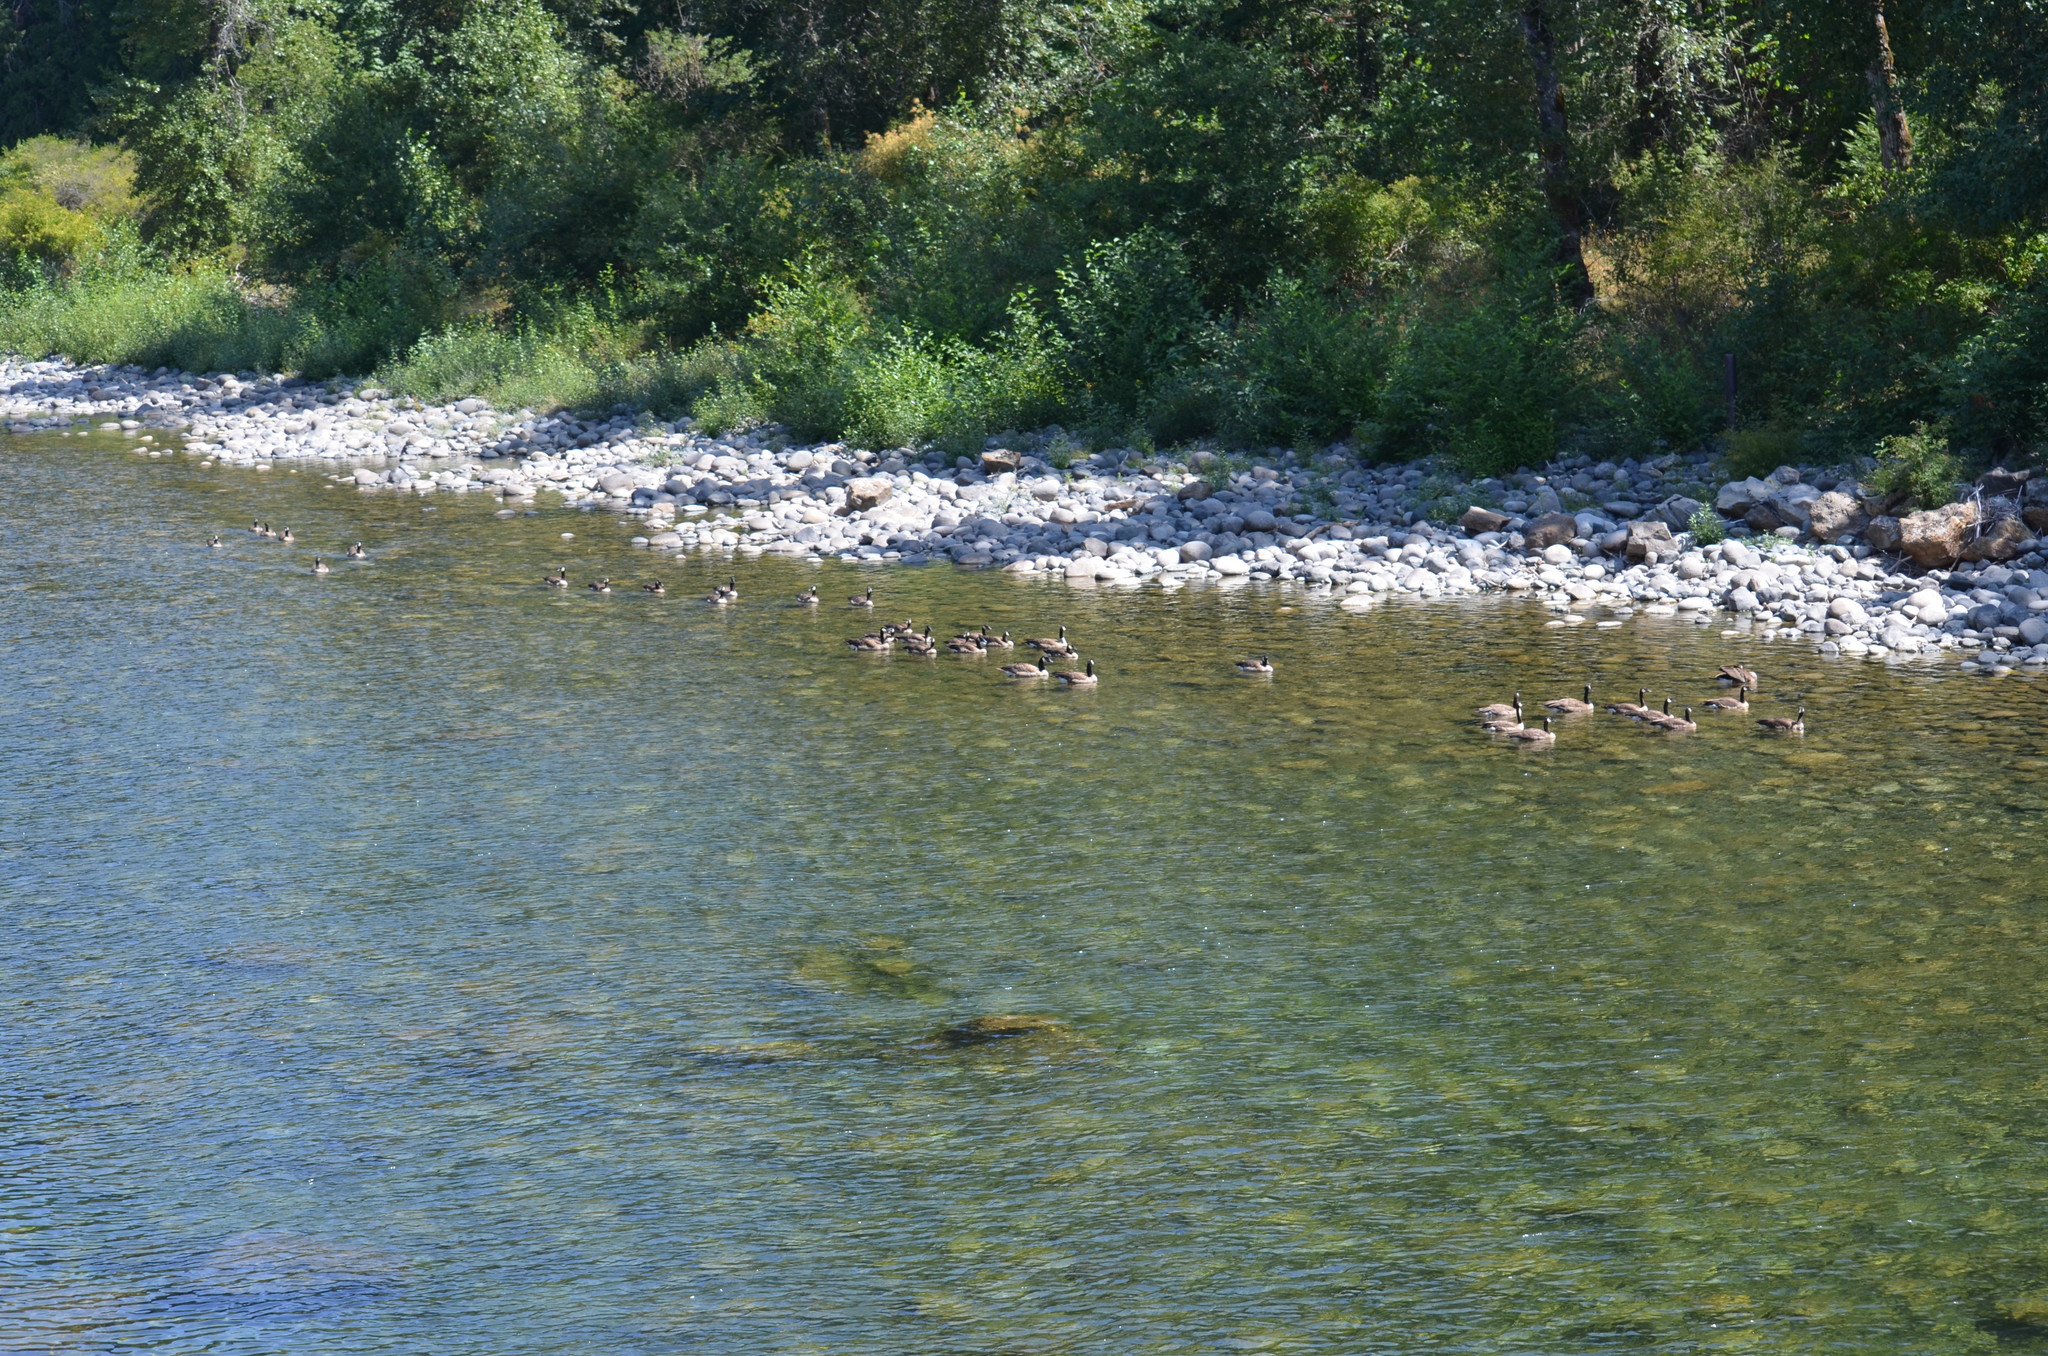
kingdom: Animalia
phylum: Chordata
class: Aves
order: Anseriformes
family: Anatidae
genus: Branta
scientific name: Branta canadensis
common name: Canada goose
